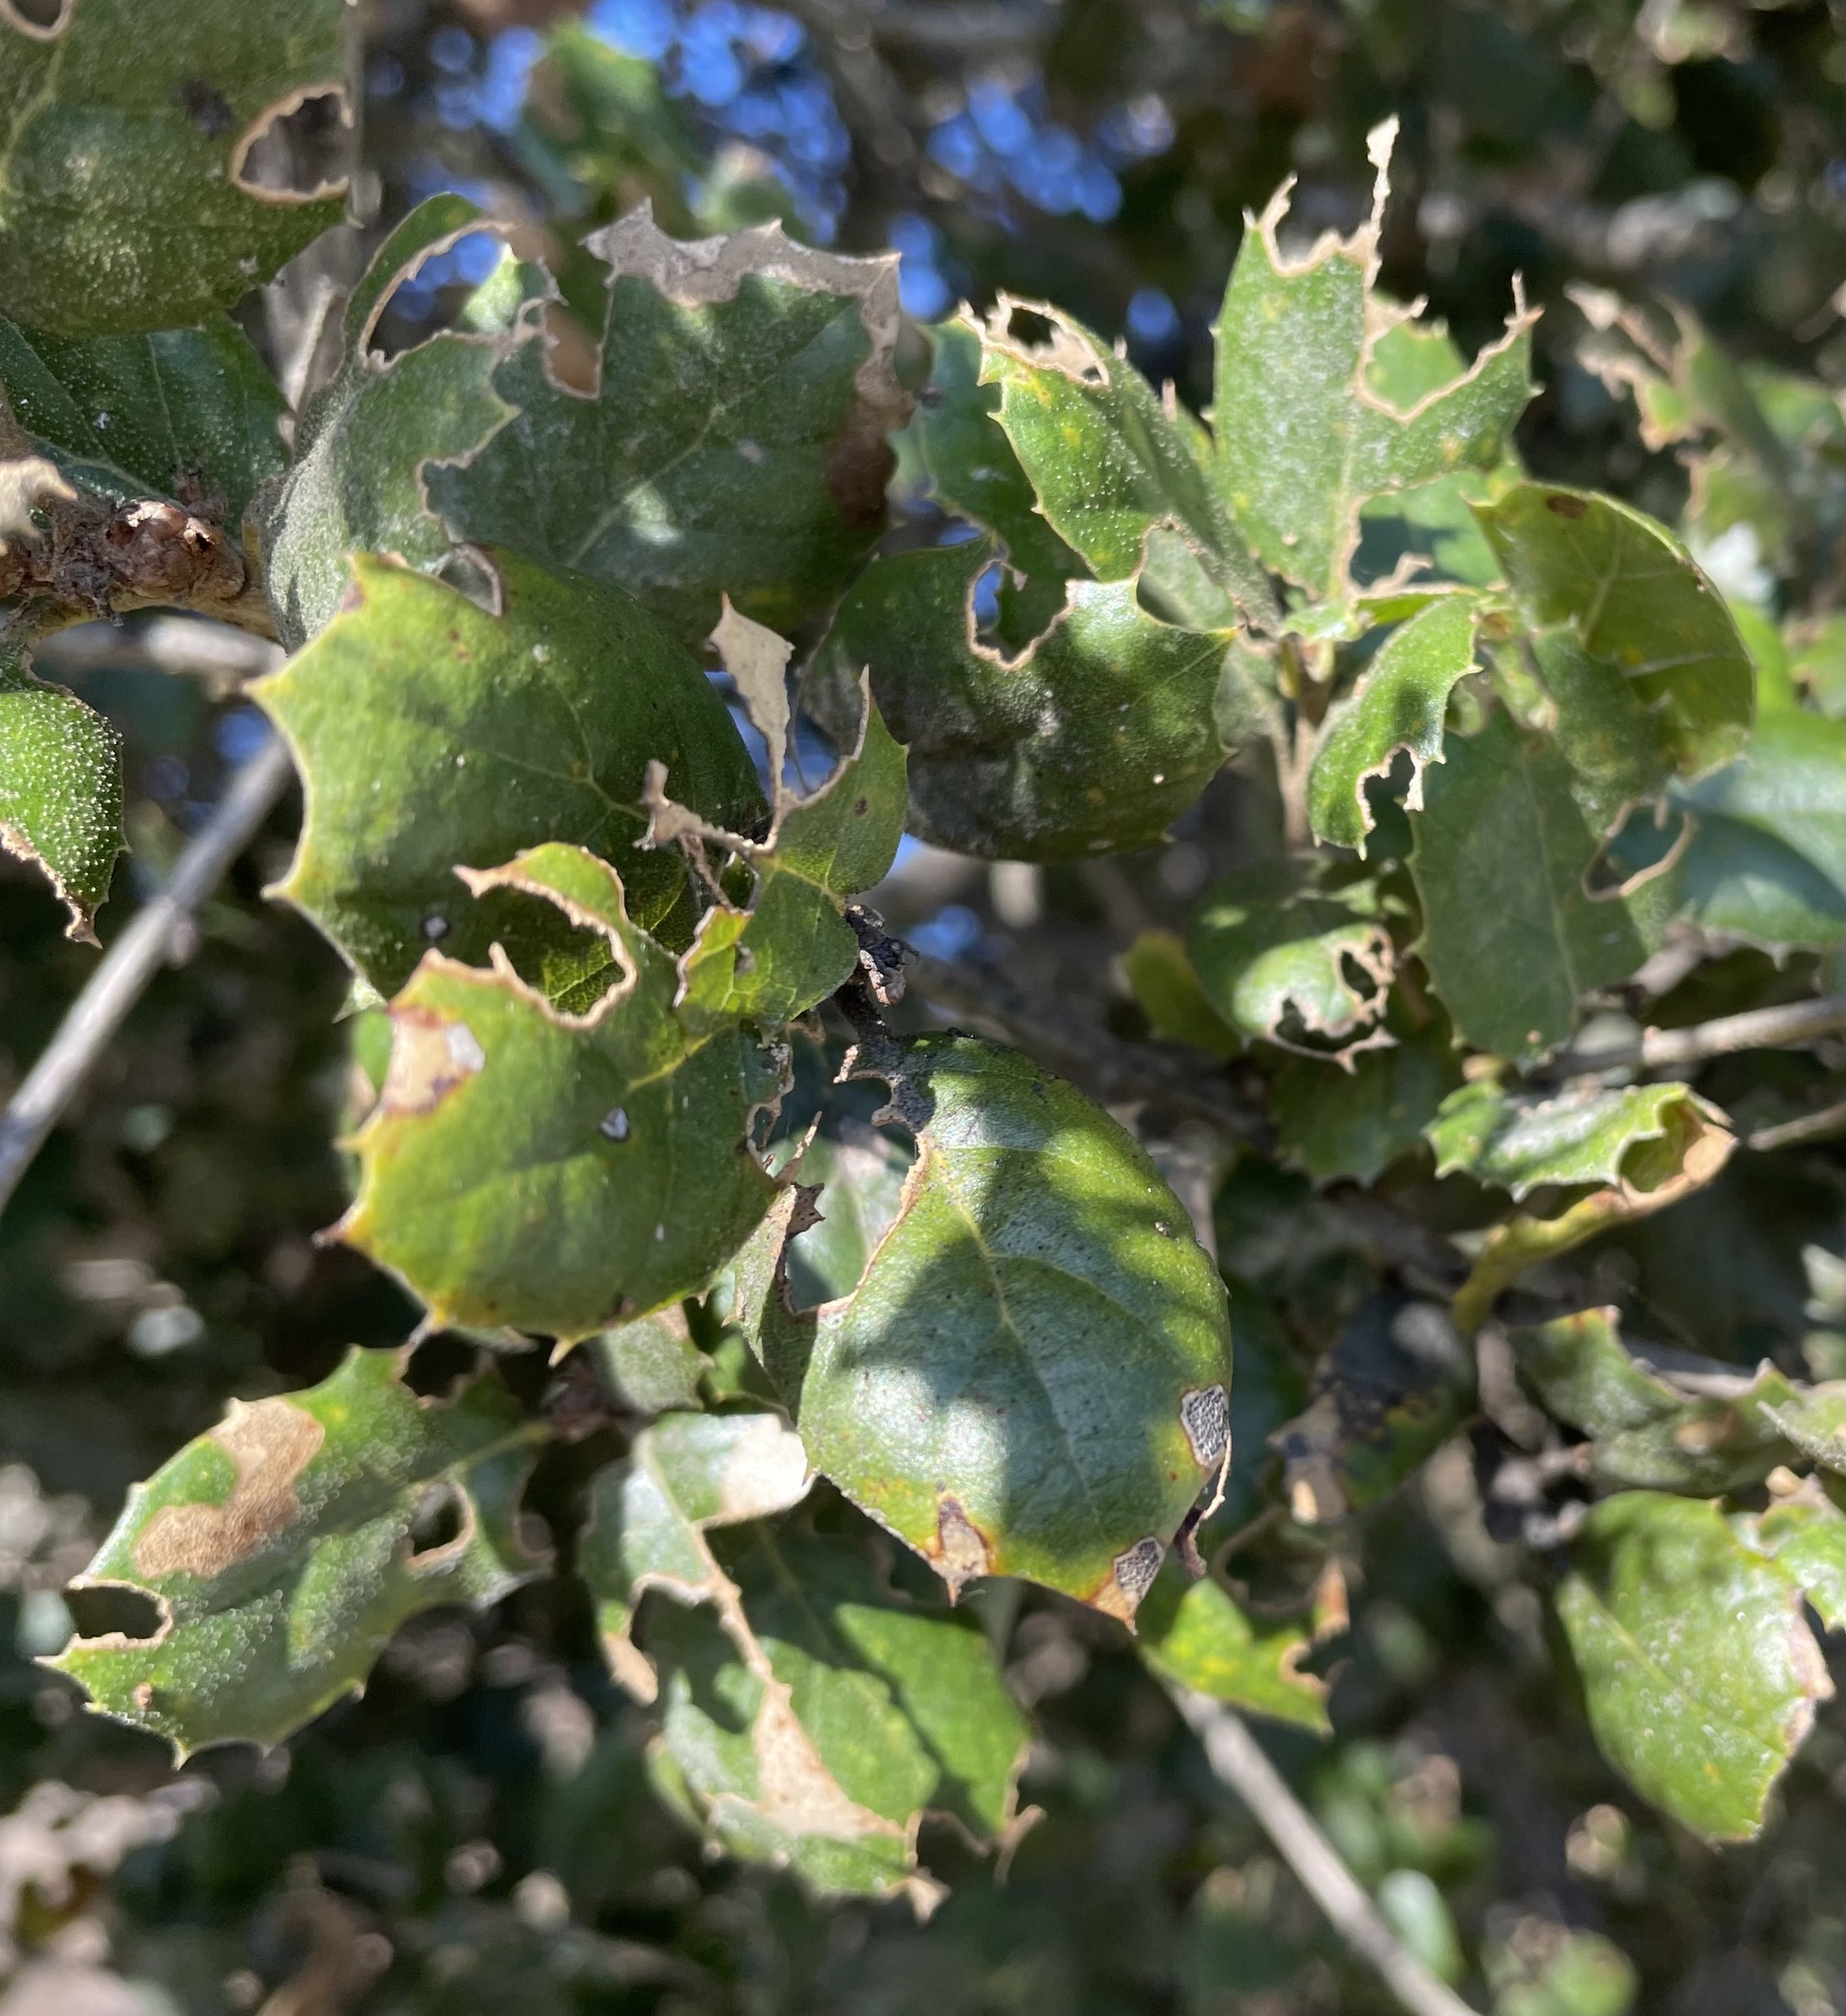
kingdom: Plantae
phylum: Tracheophyta
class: Magnoliopsida
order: Fagales
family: Fagaceae
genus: Quercus
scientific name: Quercus agrifolia
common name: California live oak
